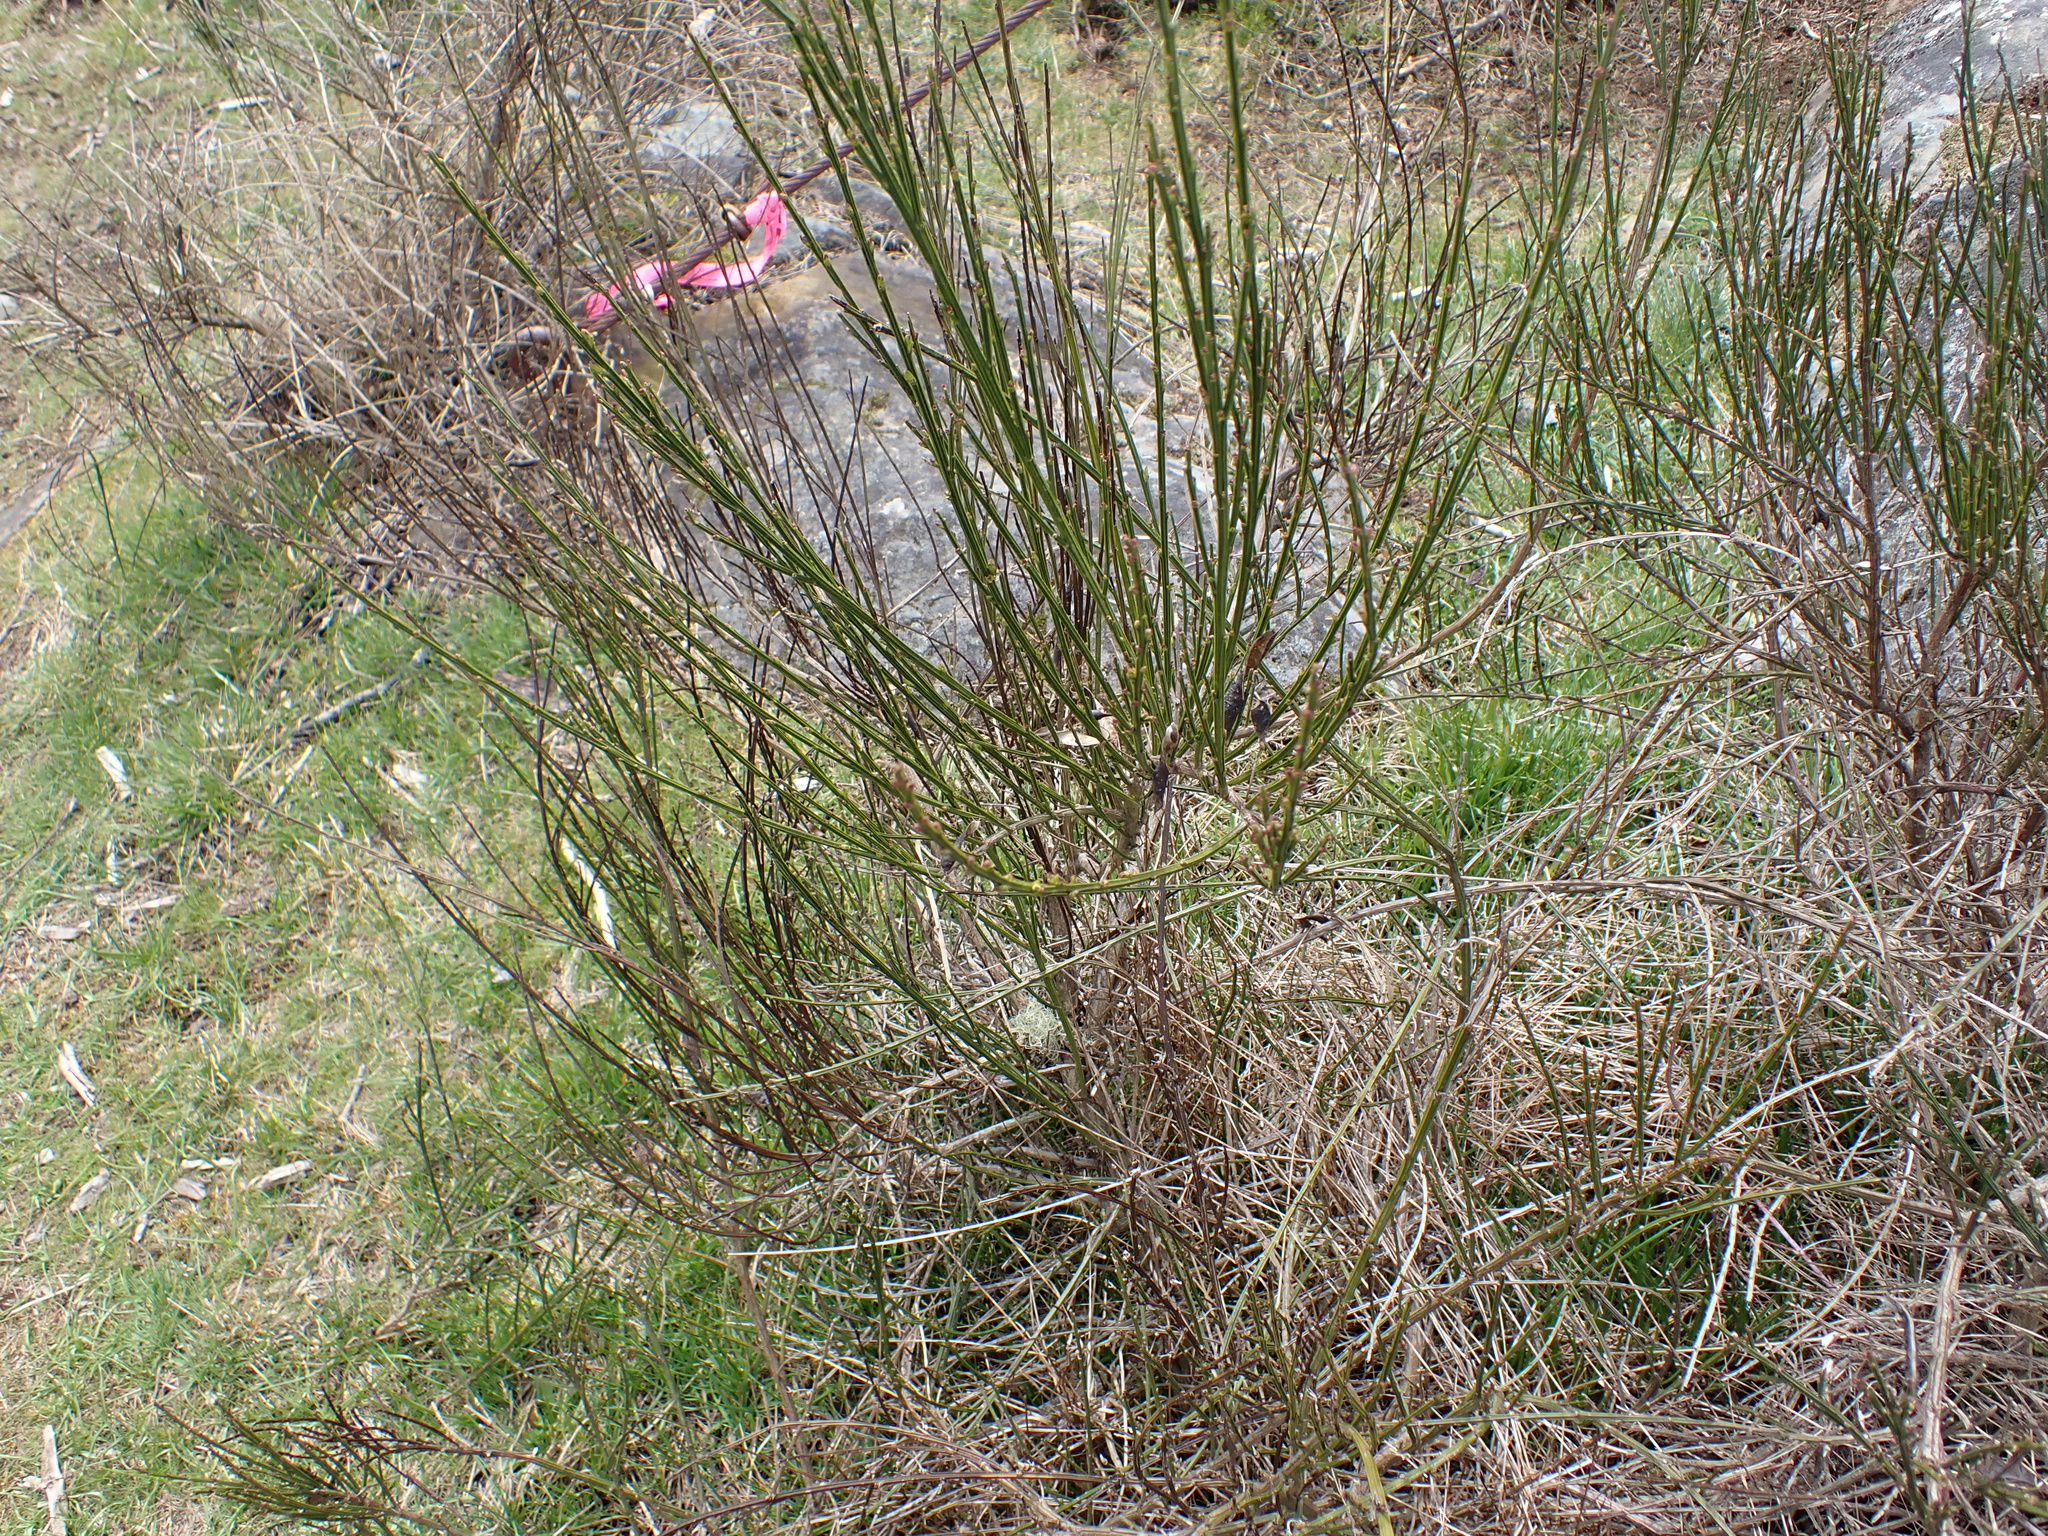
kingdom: Plantae
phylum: Tracheophyta
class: Magnoliopsida
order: Fabales
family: Fabaceae
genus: Cytisus
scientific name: Cytisus scoparius
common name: Scotch broom
